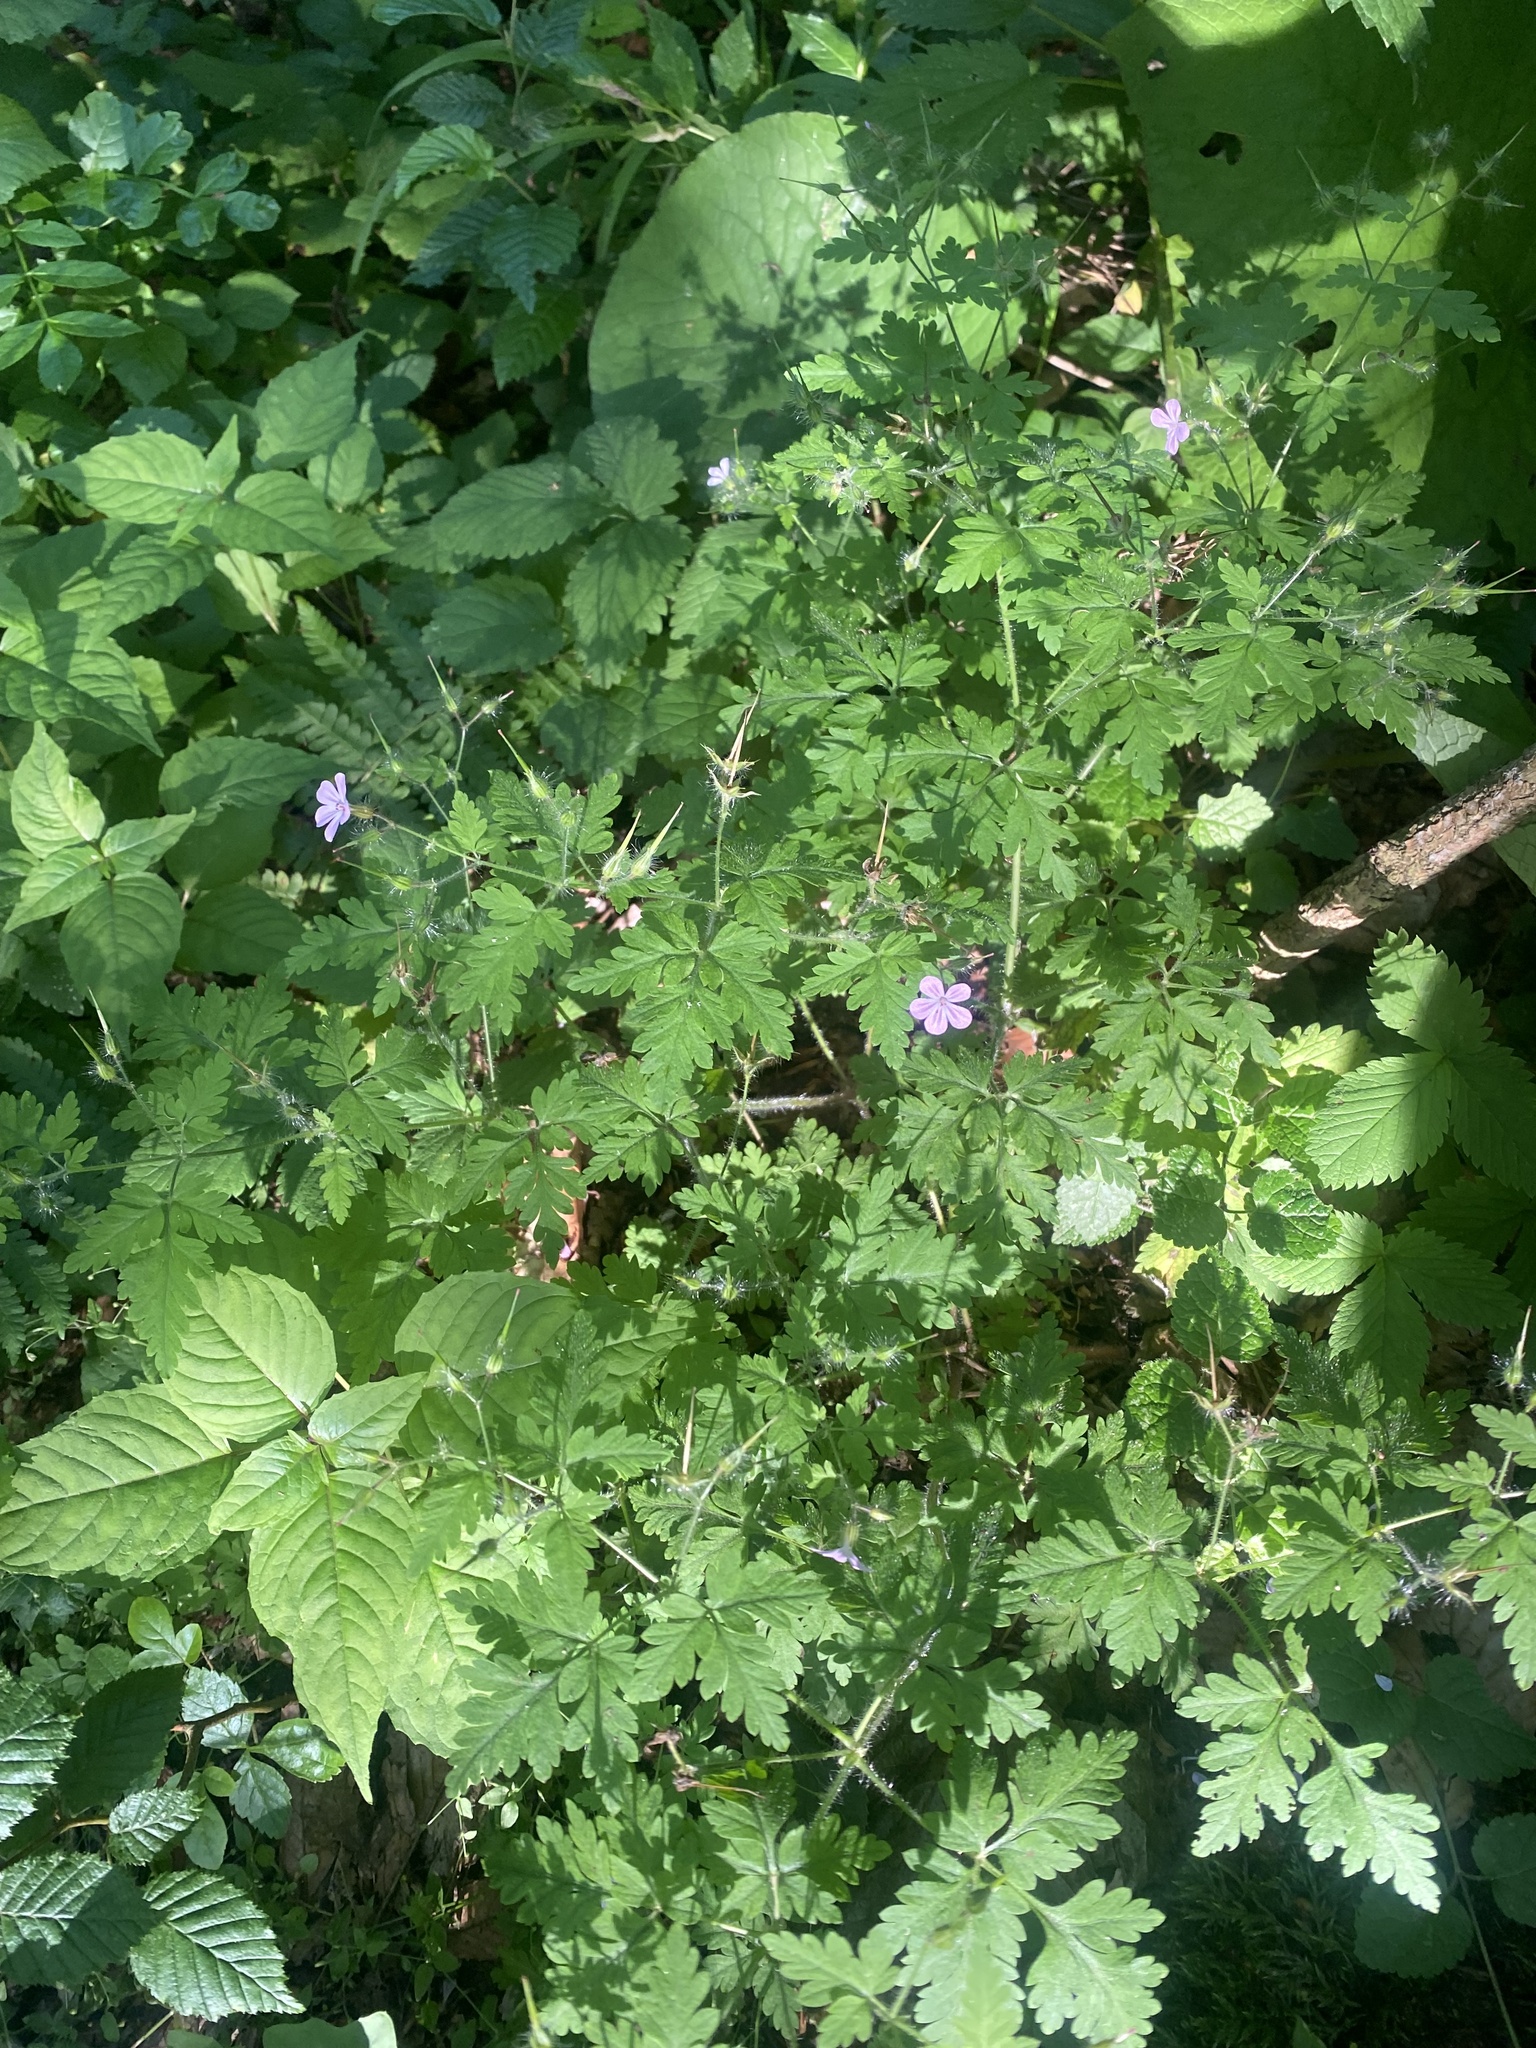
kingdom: Plantae
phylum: Tracheophyta
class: Magnoliopsida
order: Geraniales
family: Geraniaceae
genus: Geranium
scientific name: Geranium robertianum
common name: Herb-robert
